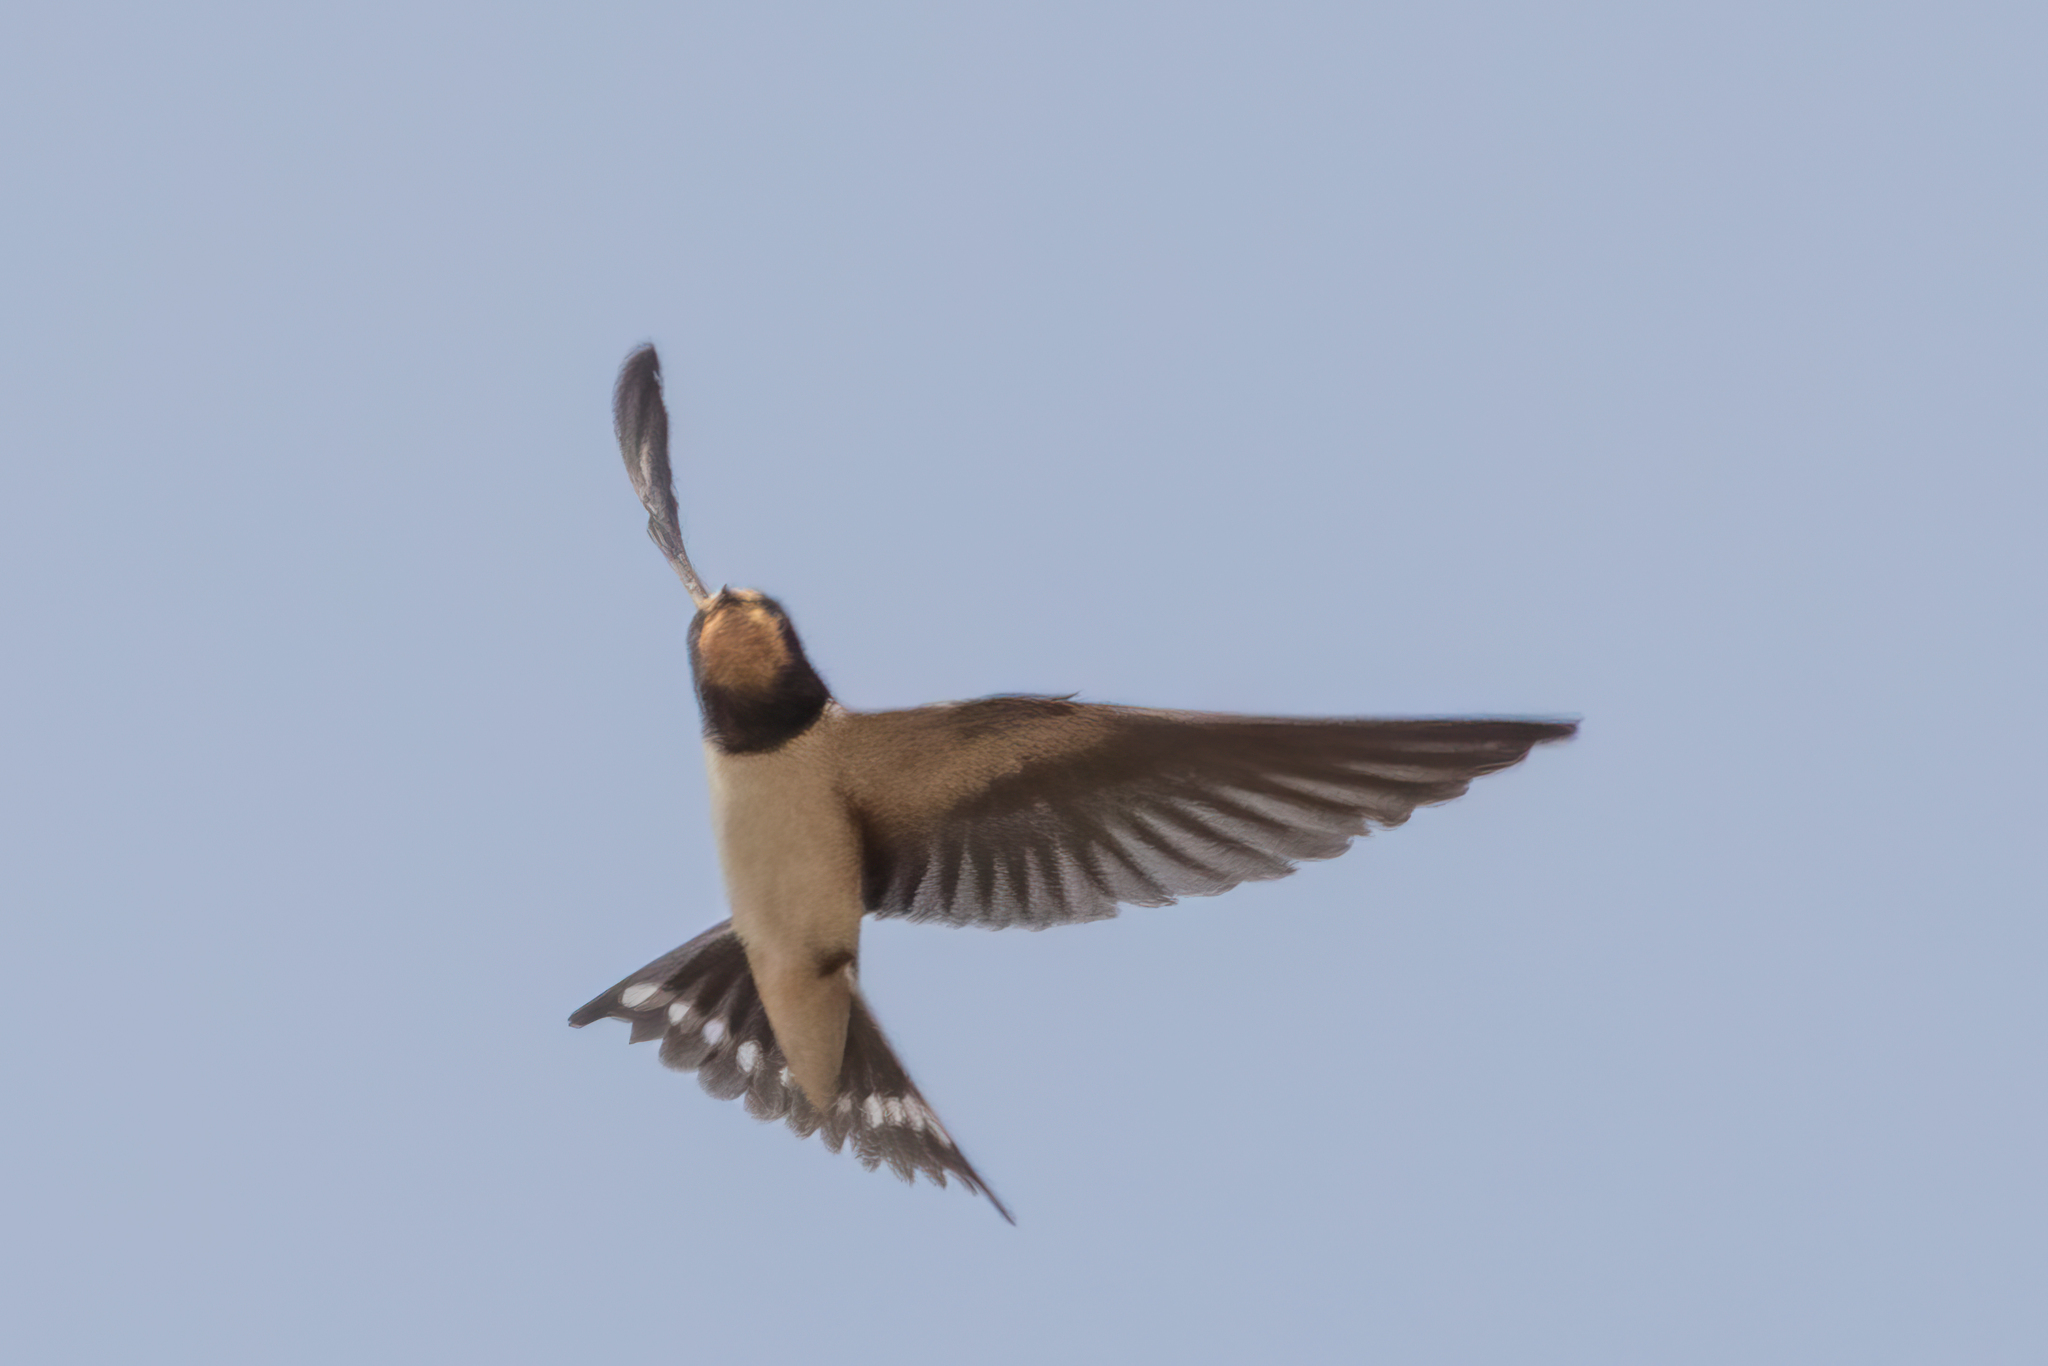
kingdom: Animalia
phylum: Chordata
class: Aves
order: Passeriformes
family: Hirundinidae
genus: Hirundo
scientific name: Hirundo rustica
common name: Barn swallow
